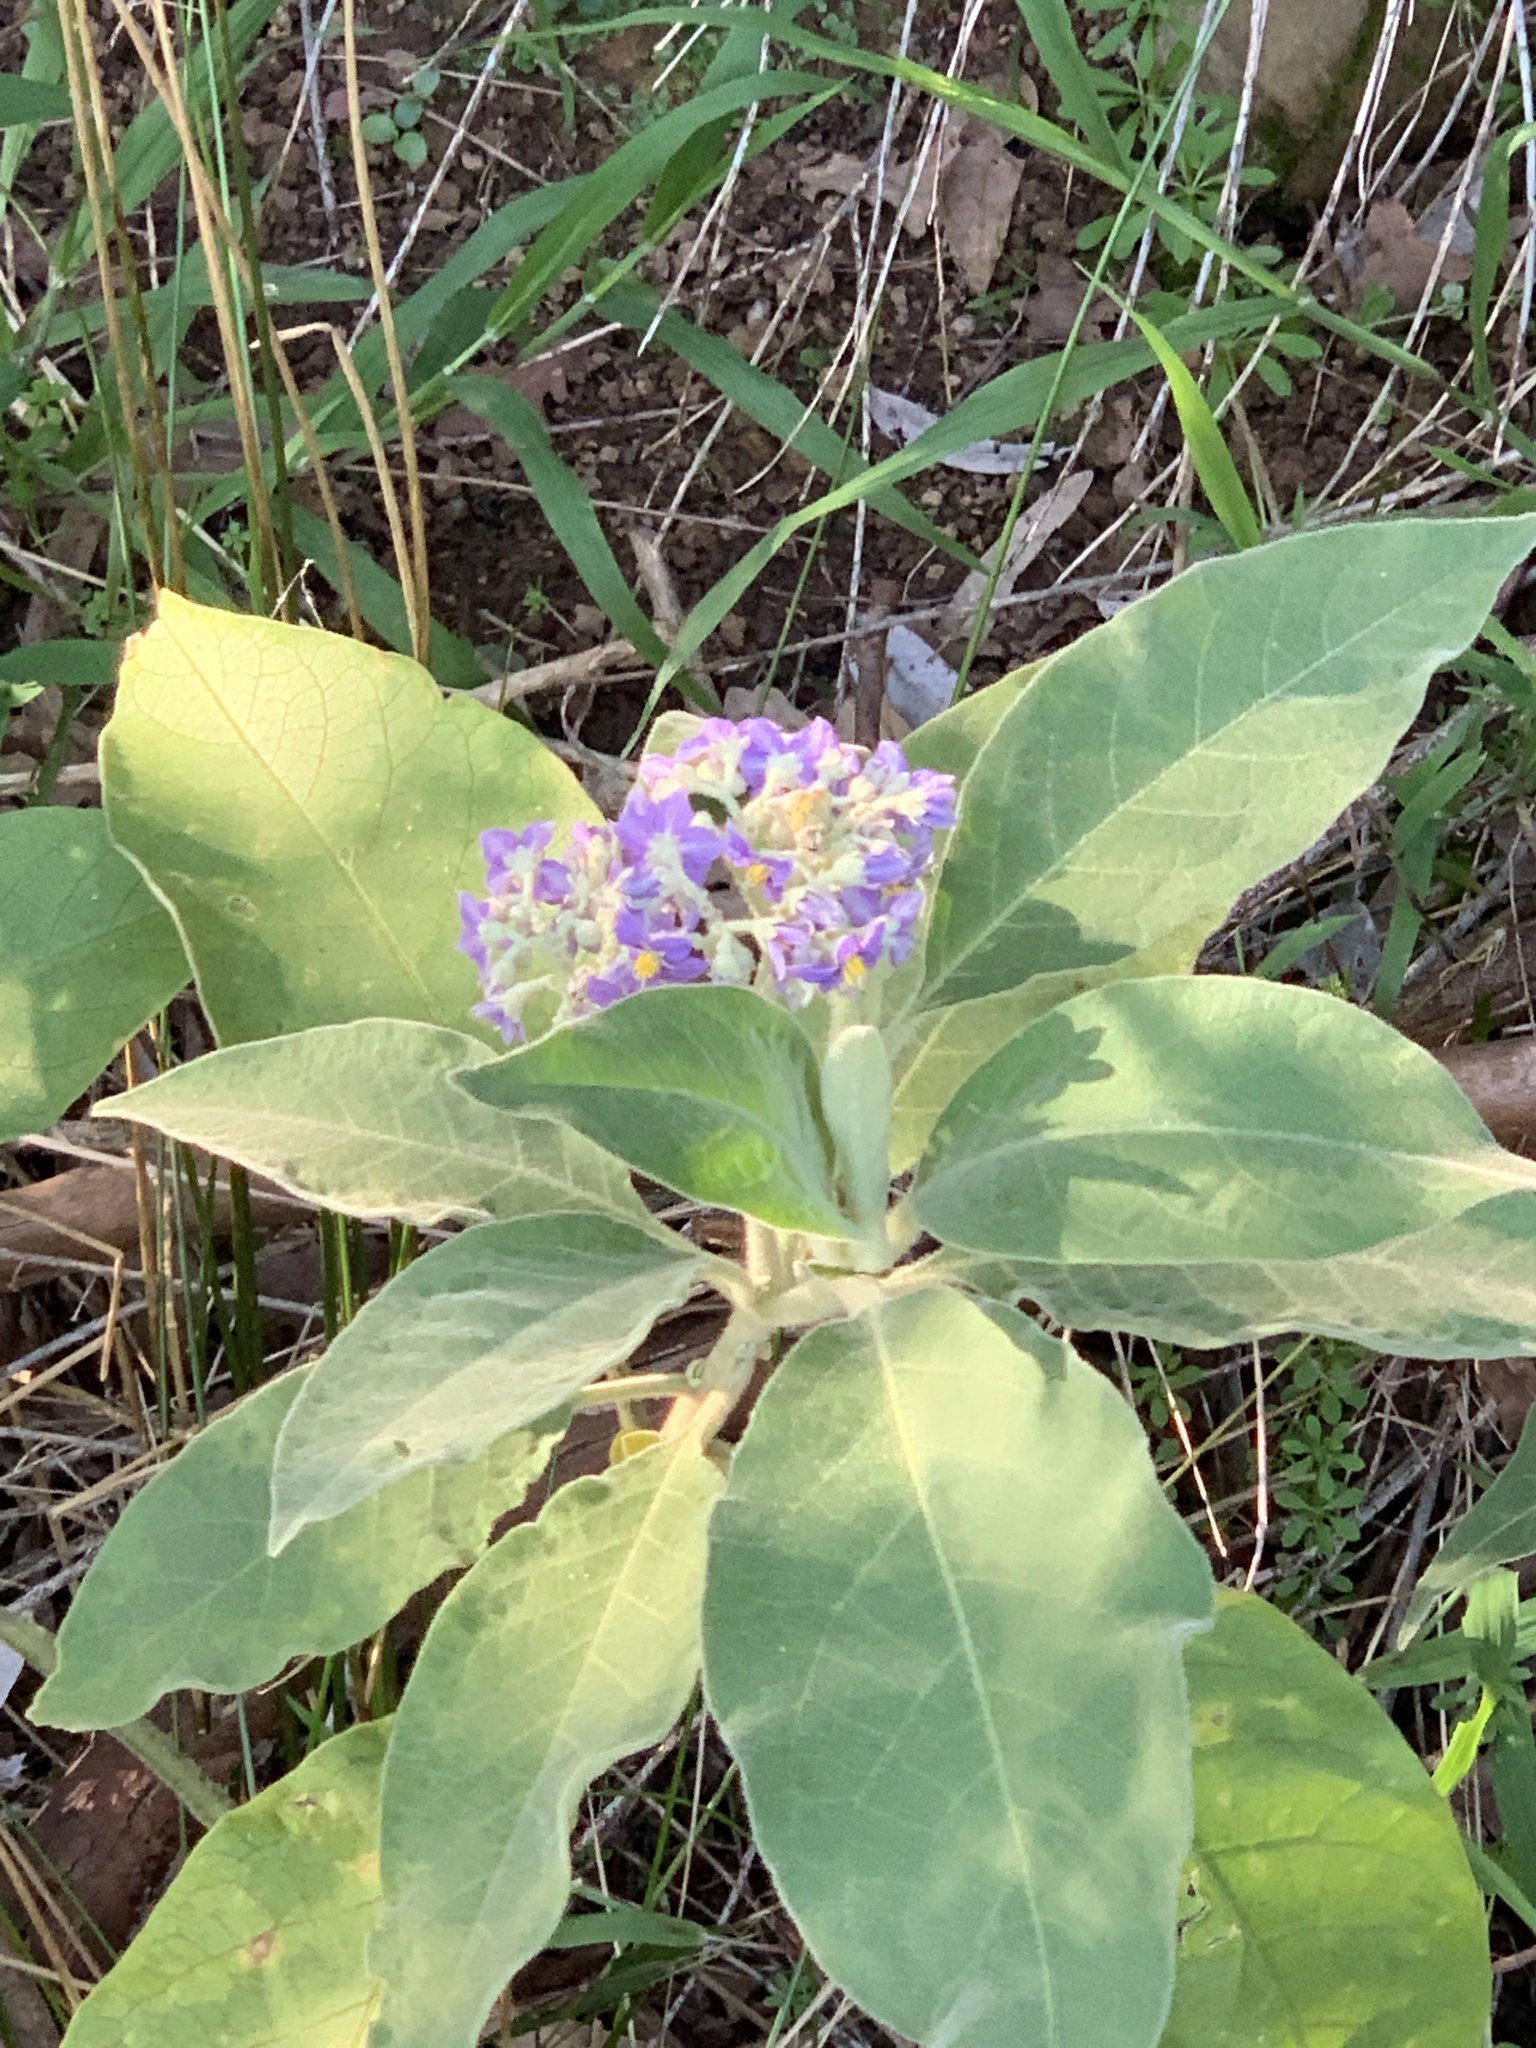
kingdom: Plantae
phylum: Tracheophyta
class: Magnoliopsida
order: Solanales
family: Solanaceae
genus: Solanum
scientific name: Solanum mauritianum
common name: Earleaf nightshade
